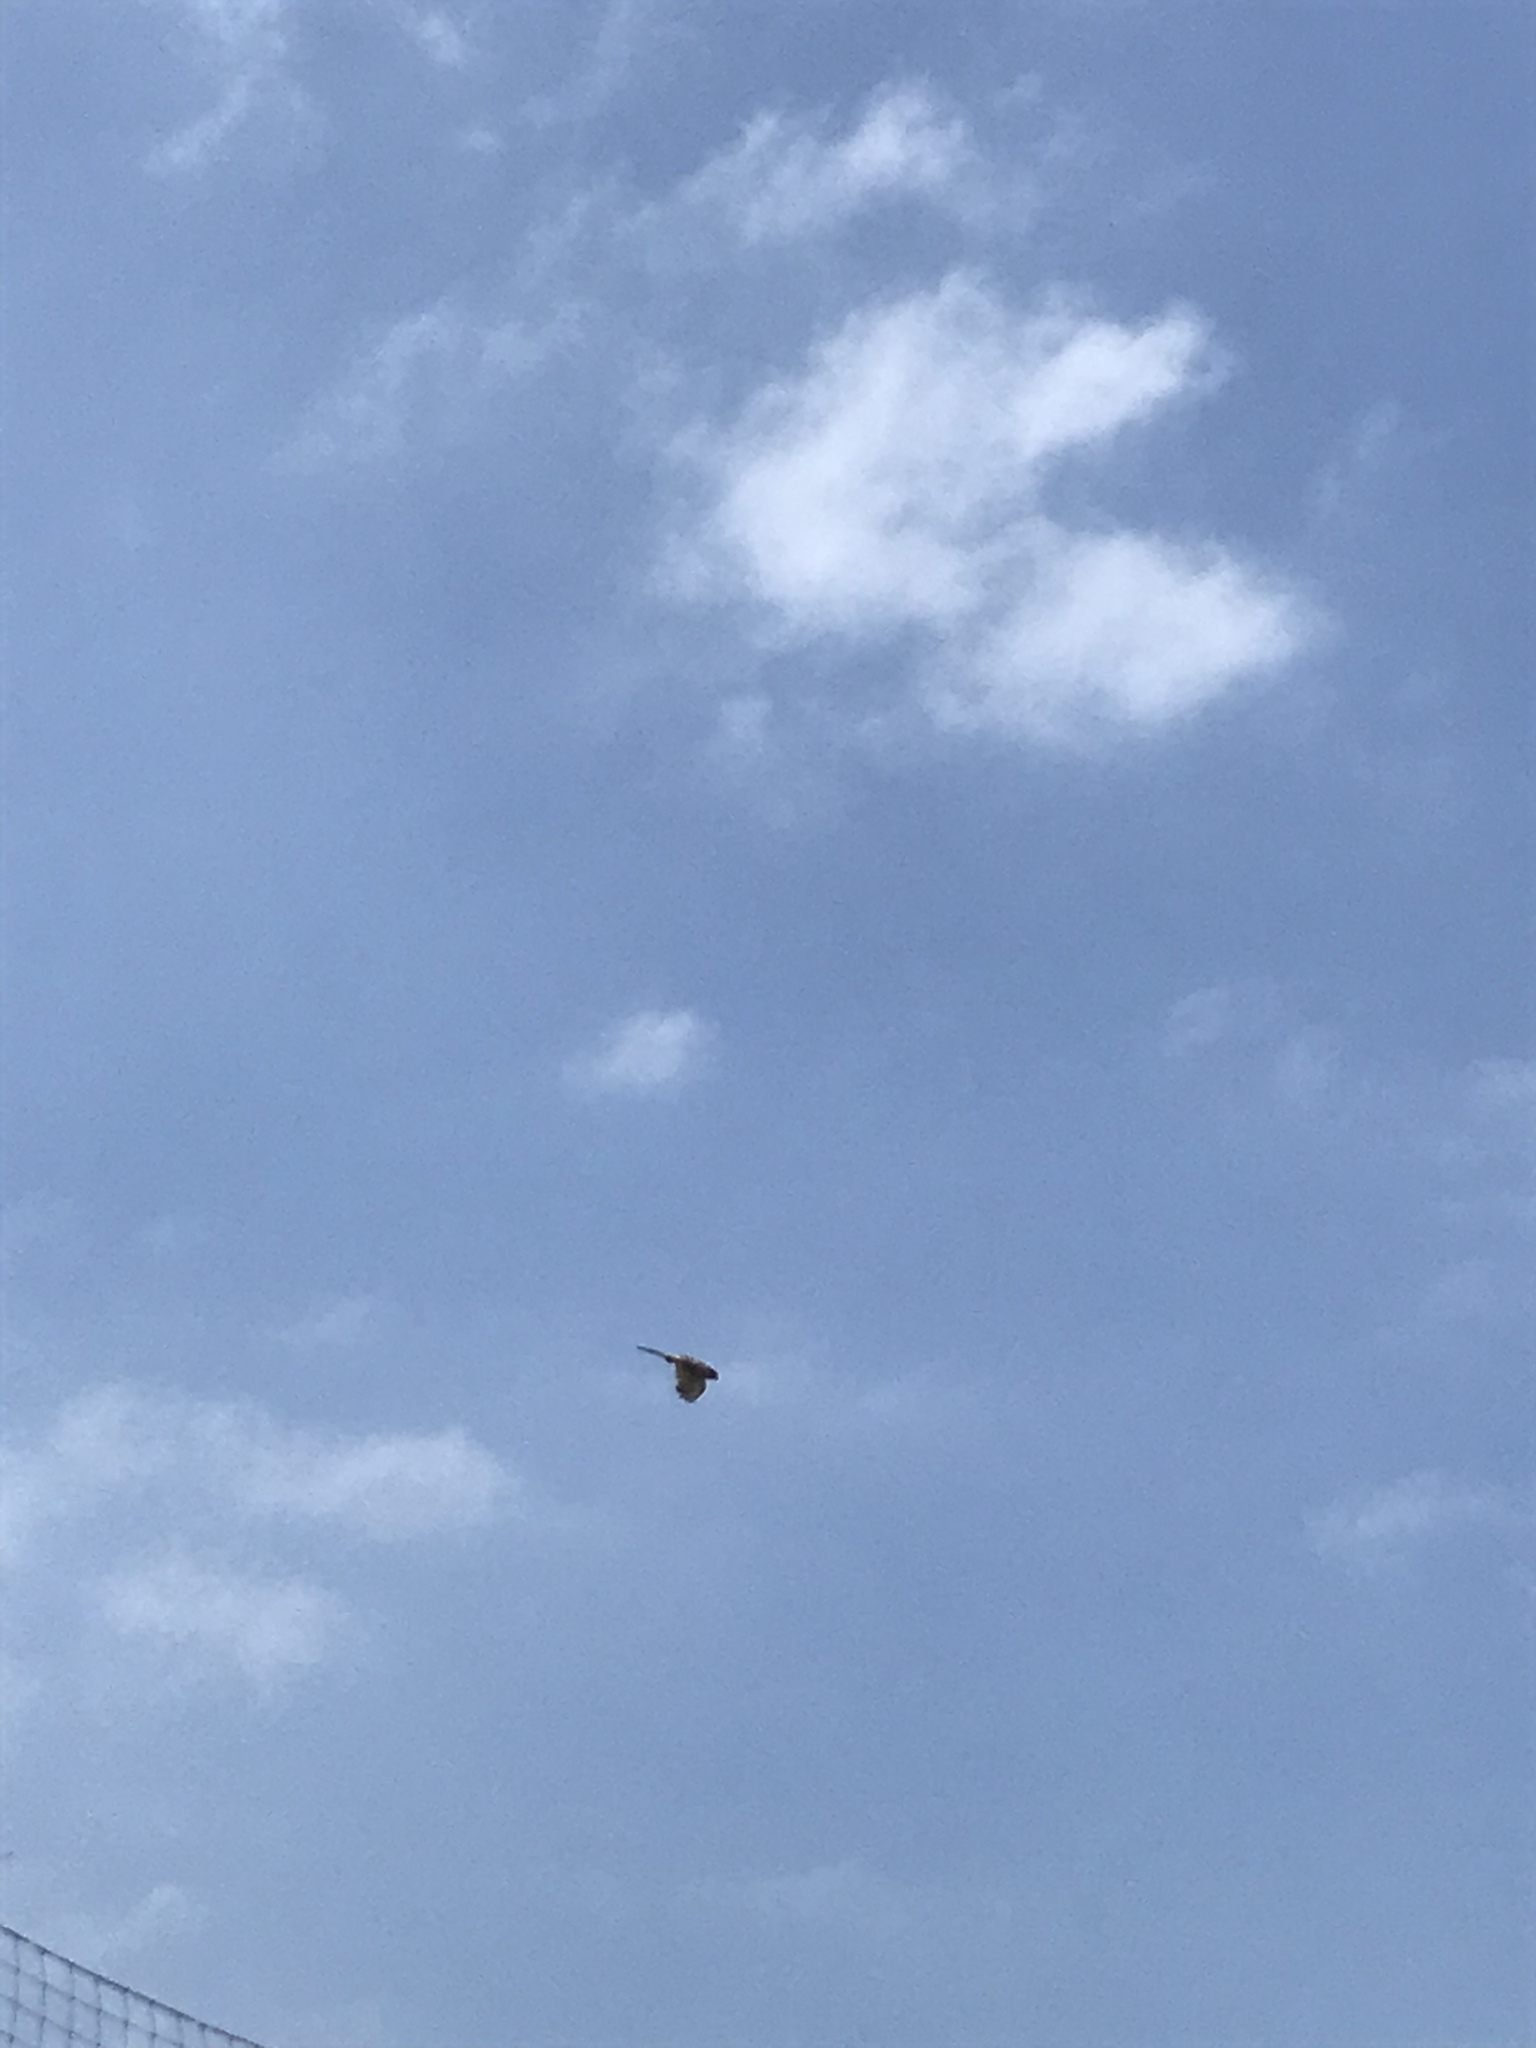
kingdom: Animalia
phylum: Chordata
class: Aves
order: Falconiformes
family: Falconidae
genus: Falco
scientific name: Falco tinnunculus
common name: Common kestrel
